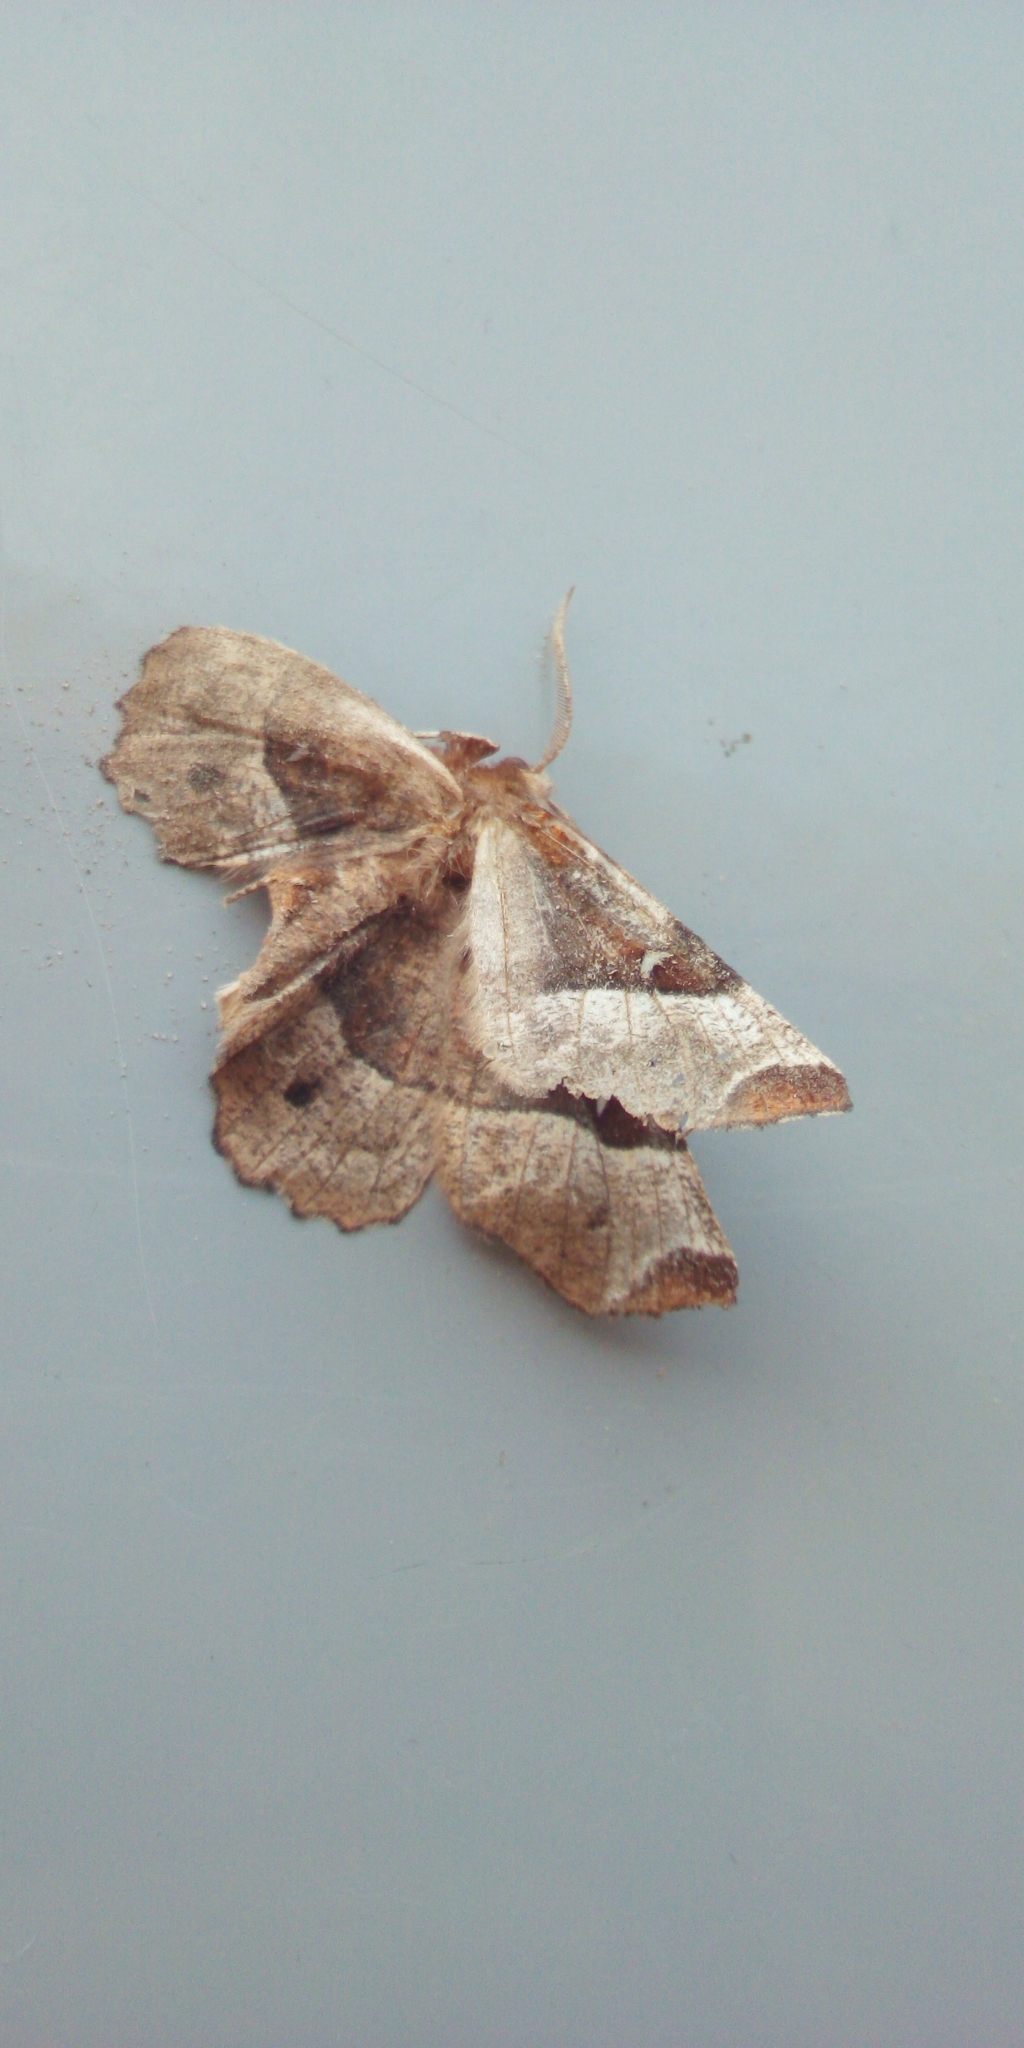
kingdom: Animalia
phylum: Arthropoda
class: Insecta
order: Lepidoptera
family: Geometridae
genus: Selenia
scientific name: Selenia tetralunaria
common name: Purple thorn
